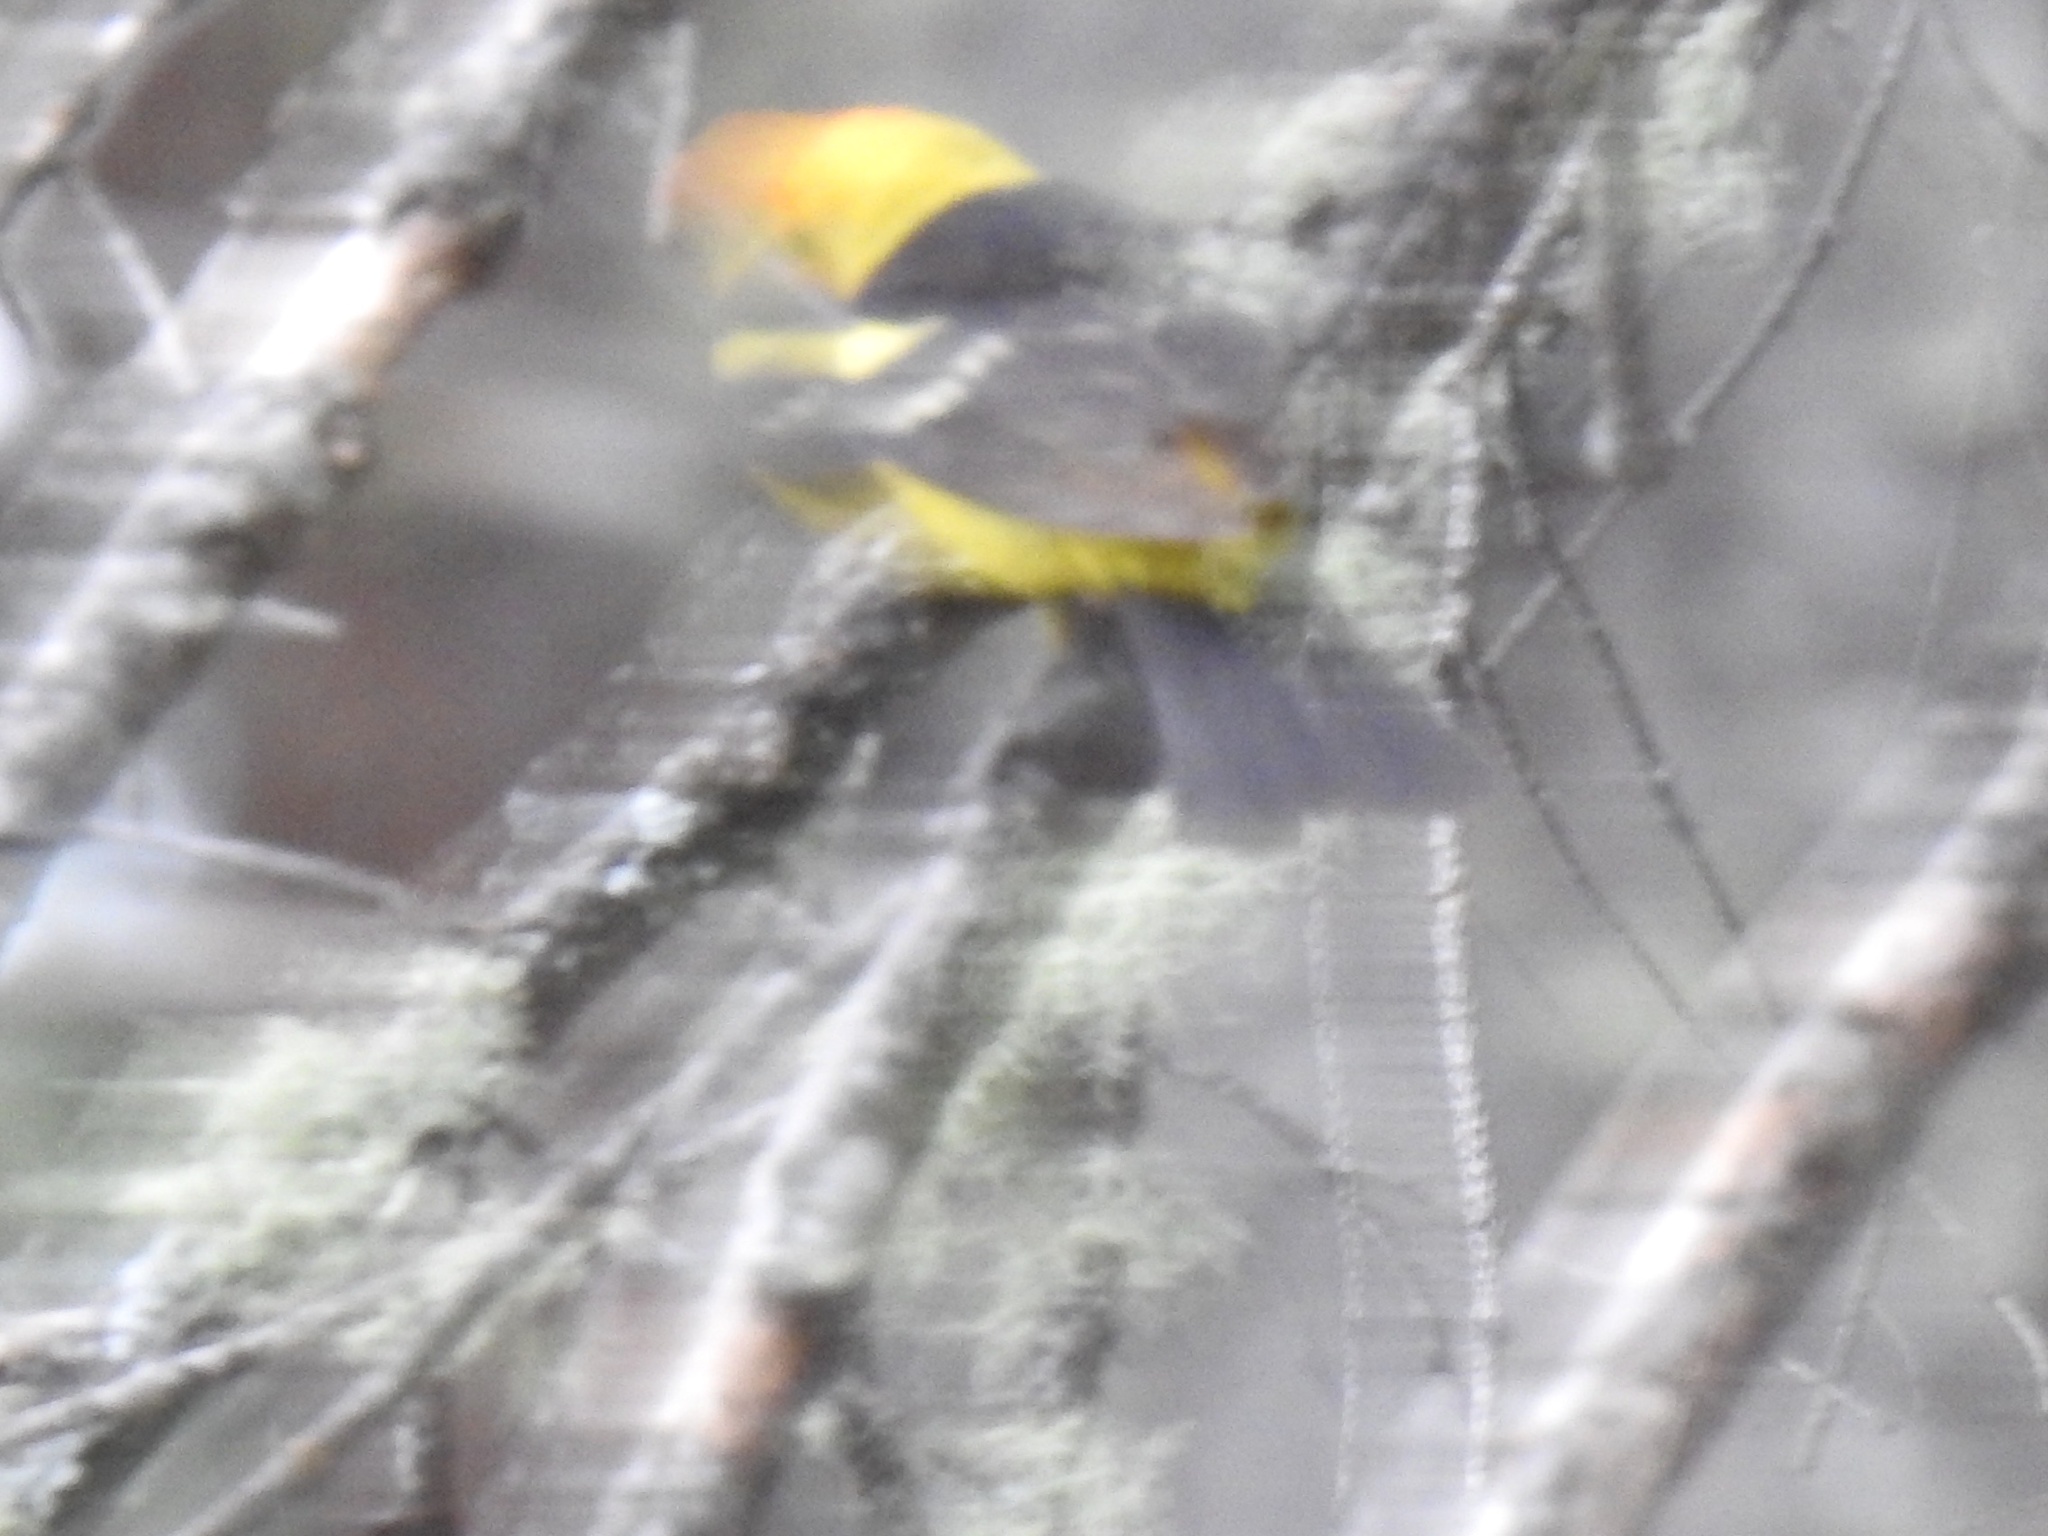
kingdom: Animalia
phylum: Chordata
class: Aves
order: Passeriformes
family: Cardinalidae
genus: Piranga
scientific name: Piranga ludoviciana
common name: Western tanager
